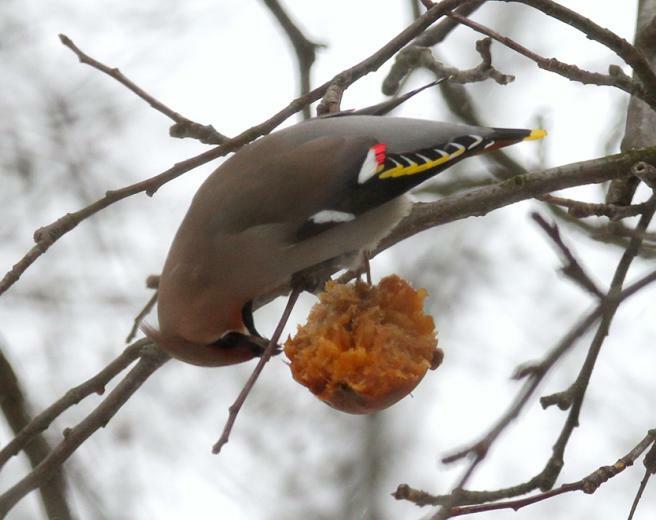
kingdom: Animalia
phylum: Chordata
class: Aves
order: Passeriformes
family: Bombycillidae
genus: Bombycilla
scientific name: Bombycilla garrulus
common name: Bohemian waxwing
